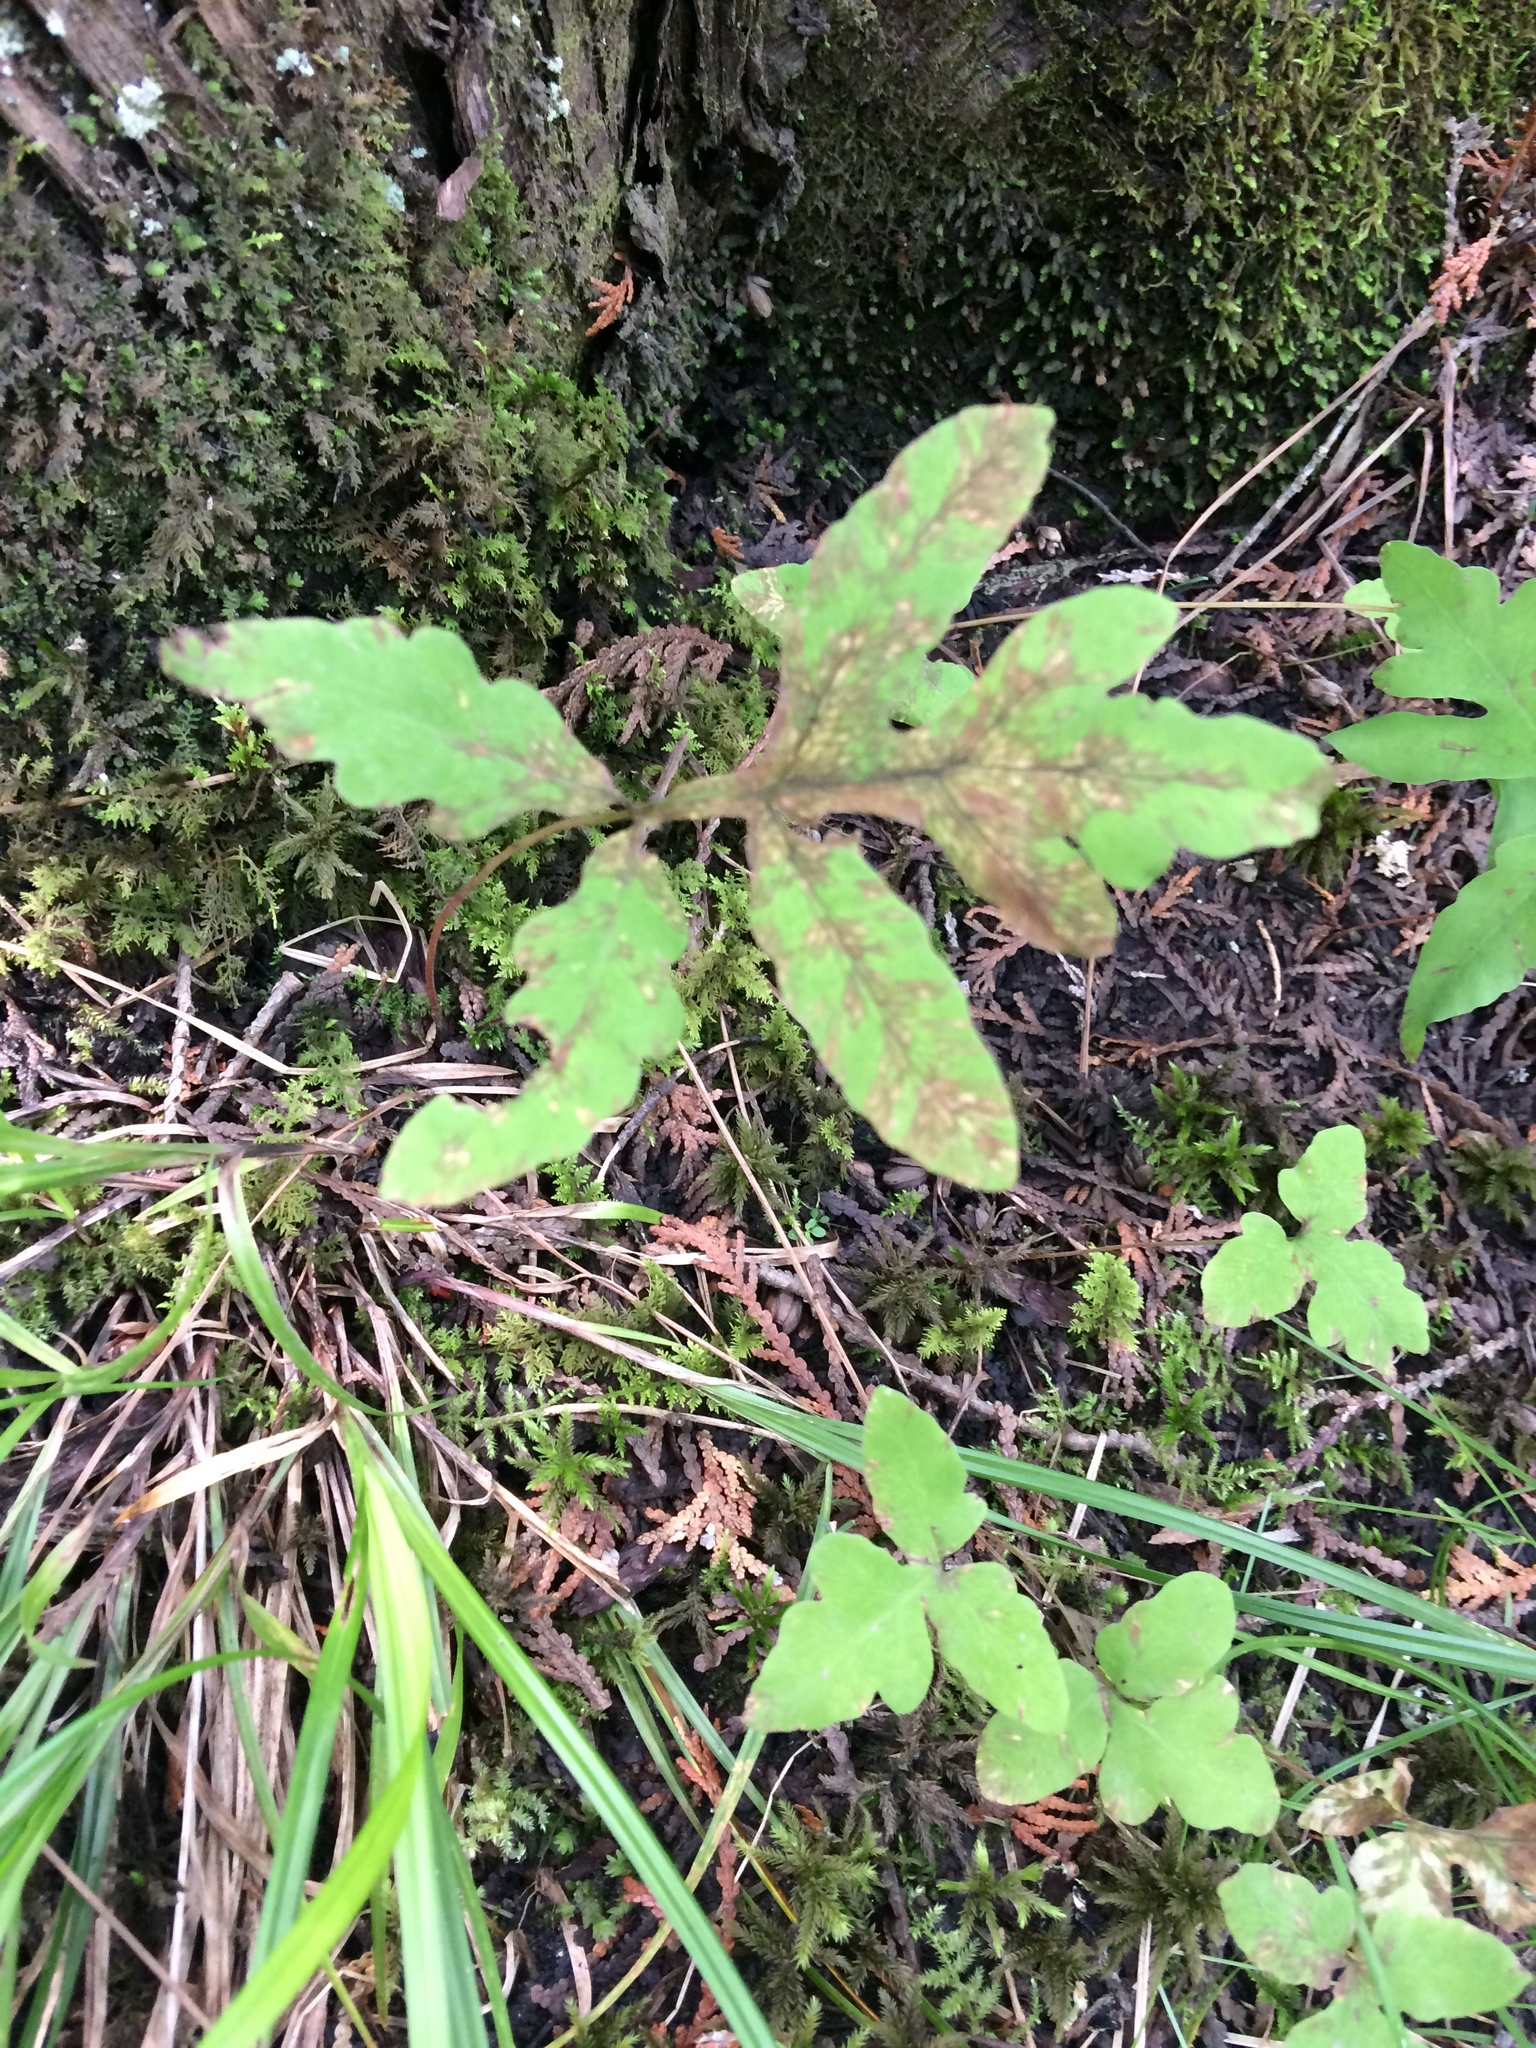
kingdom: Plantae
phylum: Tracheophyta
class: Polypodiopsida
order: Polypodiales
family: Onocleaceae
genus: Onoclea
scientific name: Onoclea sensibilis
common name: Sensitive fern
